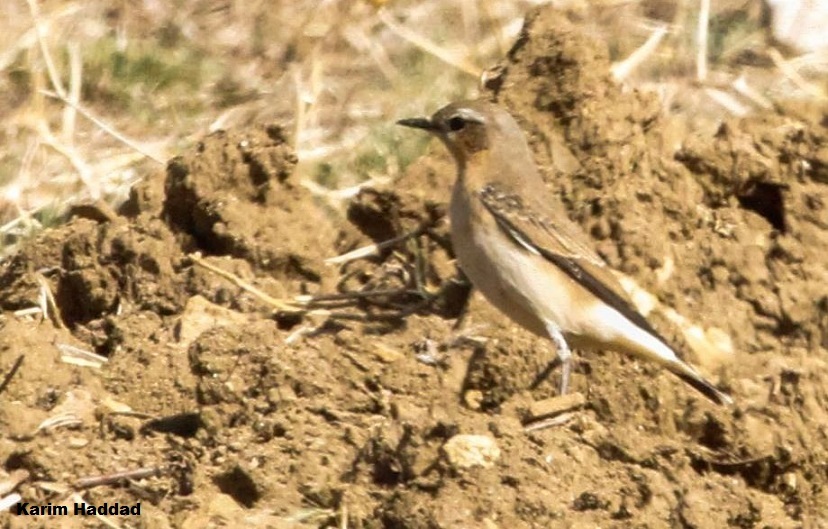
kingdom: Animalia
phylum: Chordata
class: Aves
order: Passeriformes
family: Muscicapidae
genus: Oenanthe
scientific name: Oenanthe oenanthe
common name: Northern wheatear
